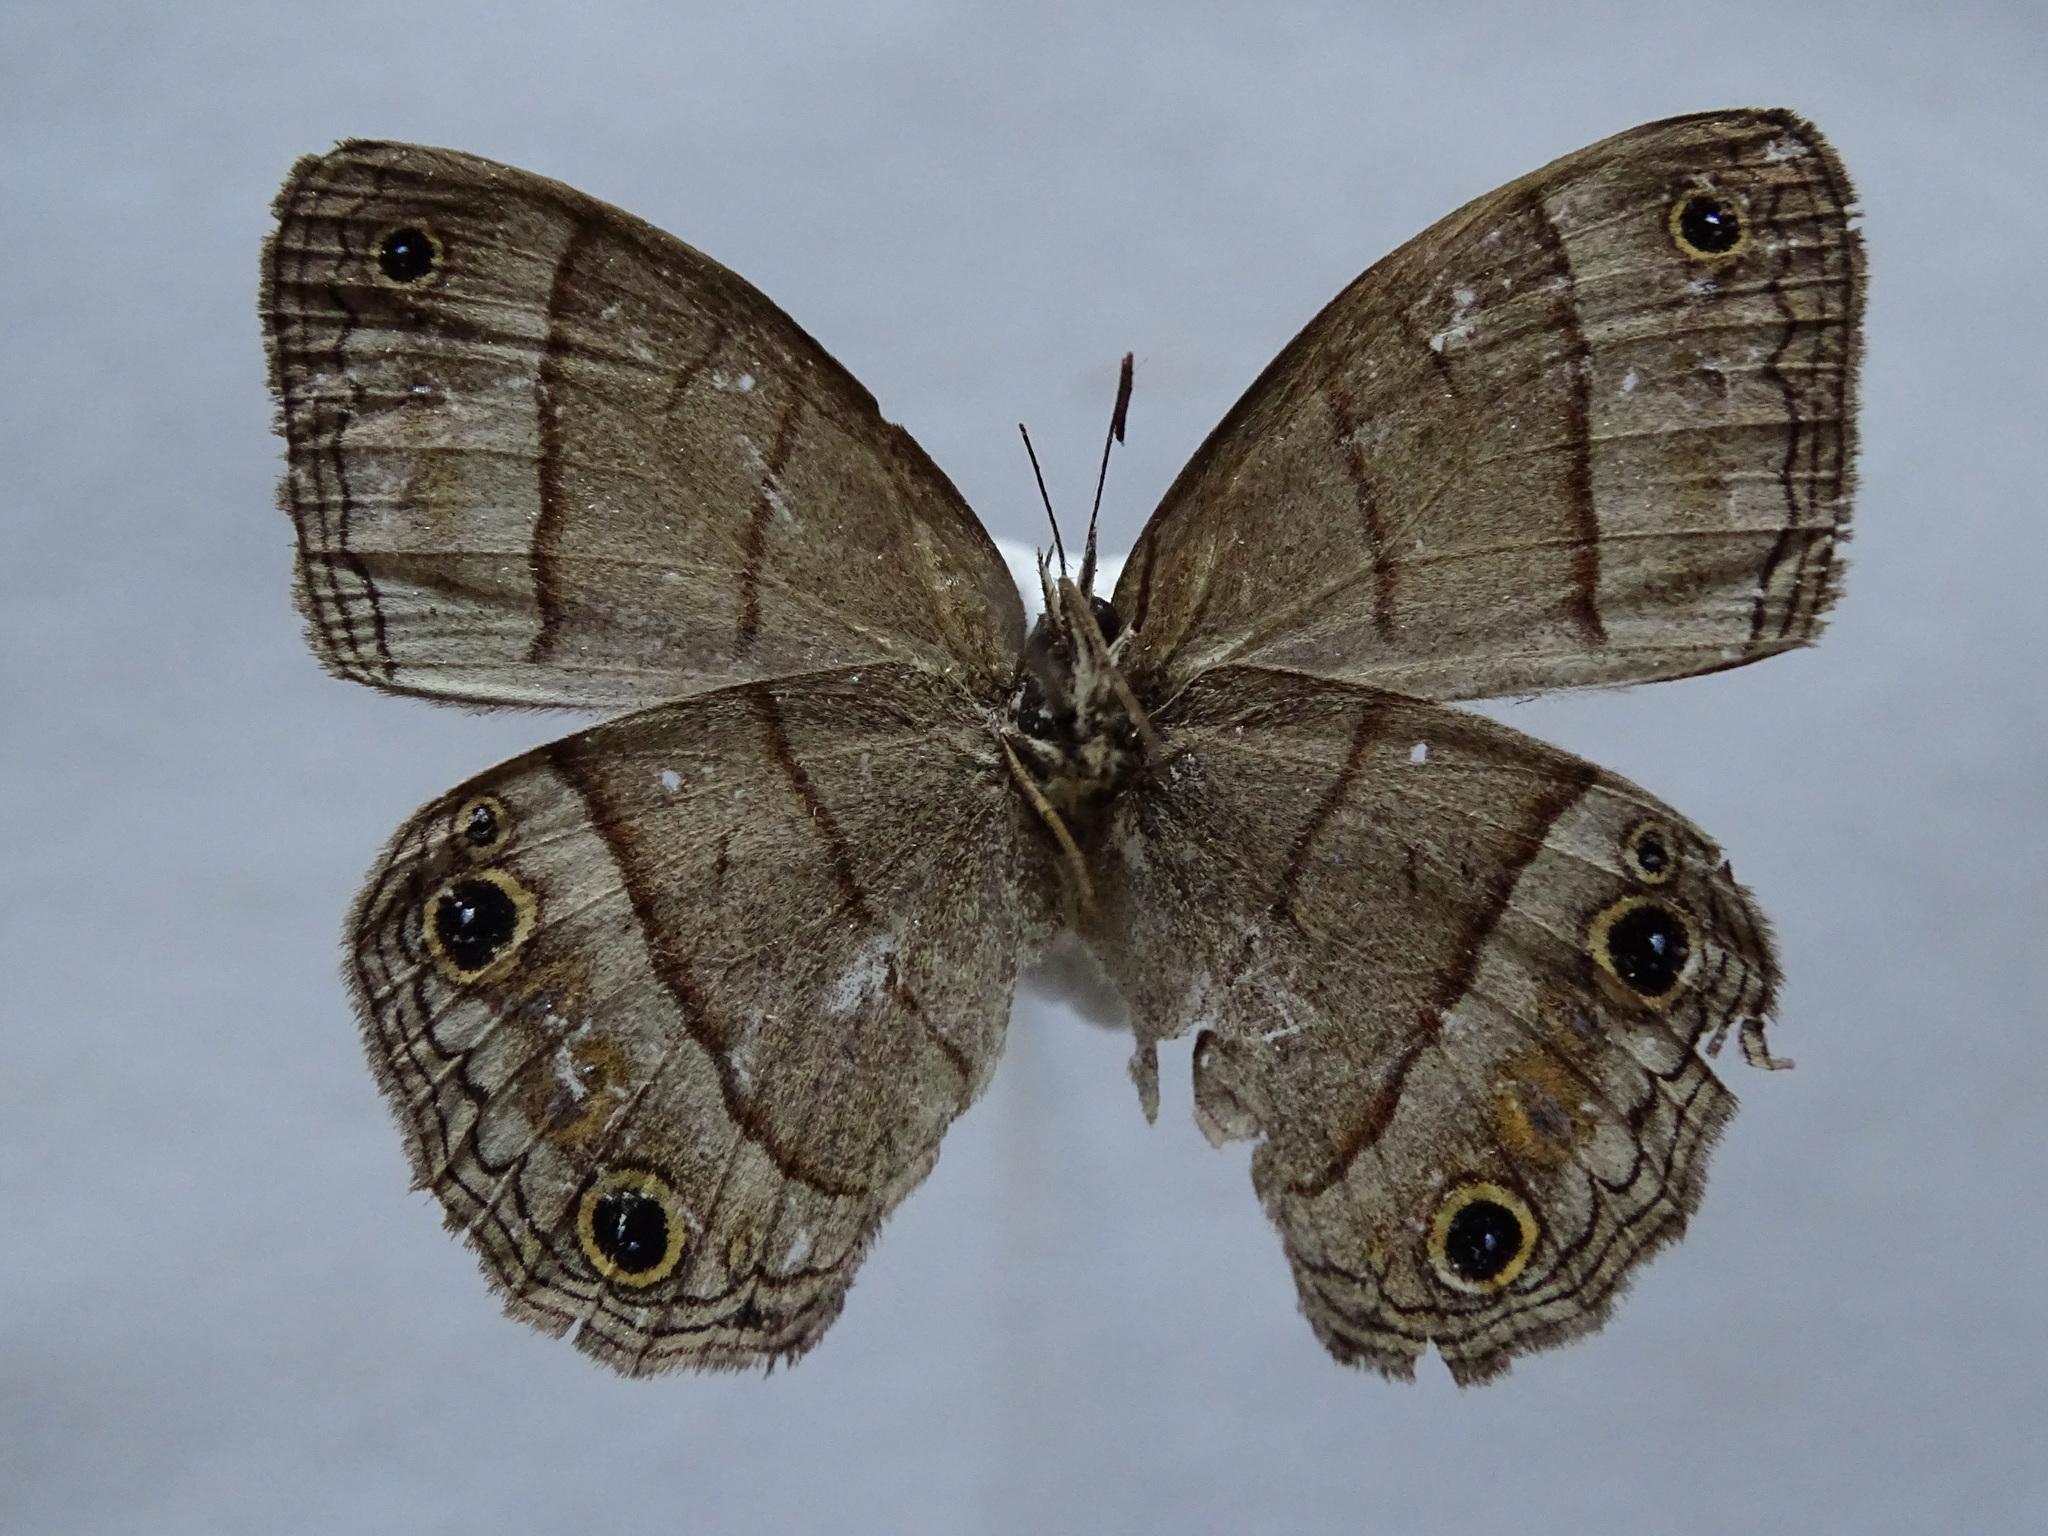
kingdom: Animalia
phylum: Arthropoda
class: Insecta
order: Lepidoptera
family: Nymphalidae
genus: Euptychia
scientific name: Euptychia Cissia pompilia
